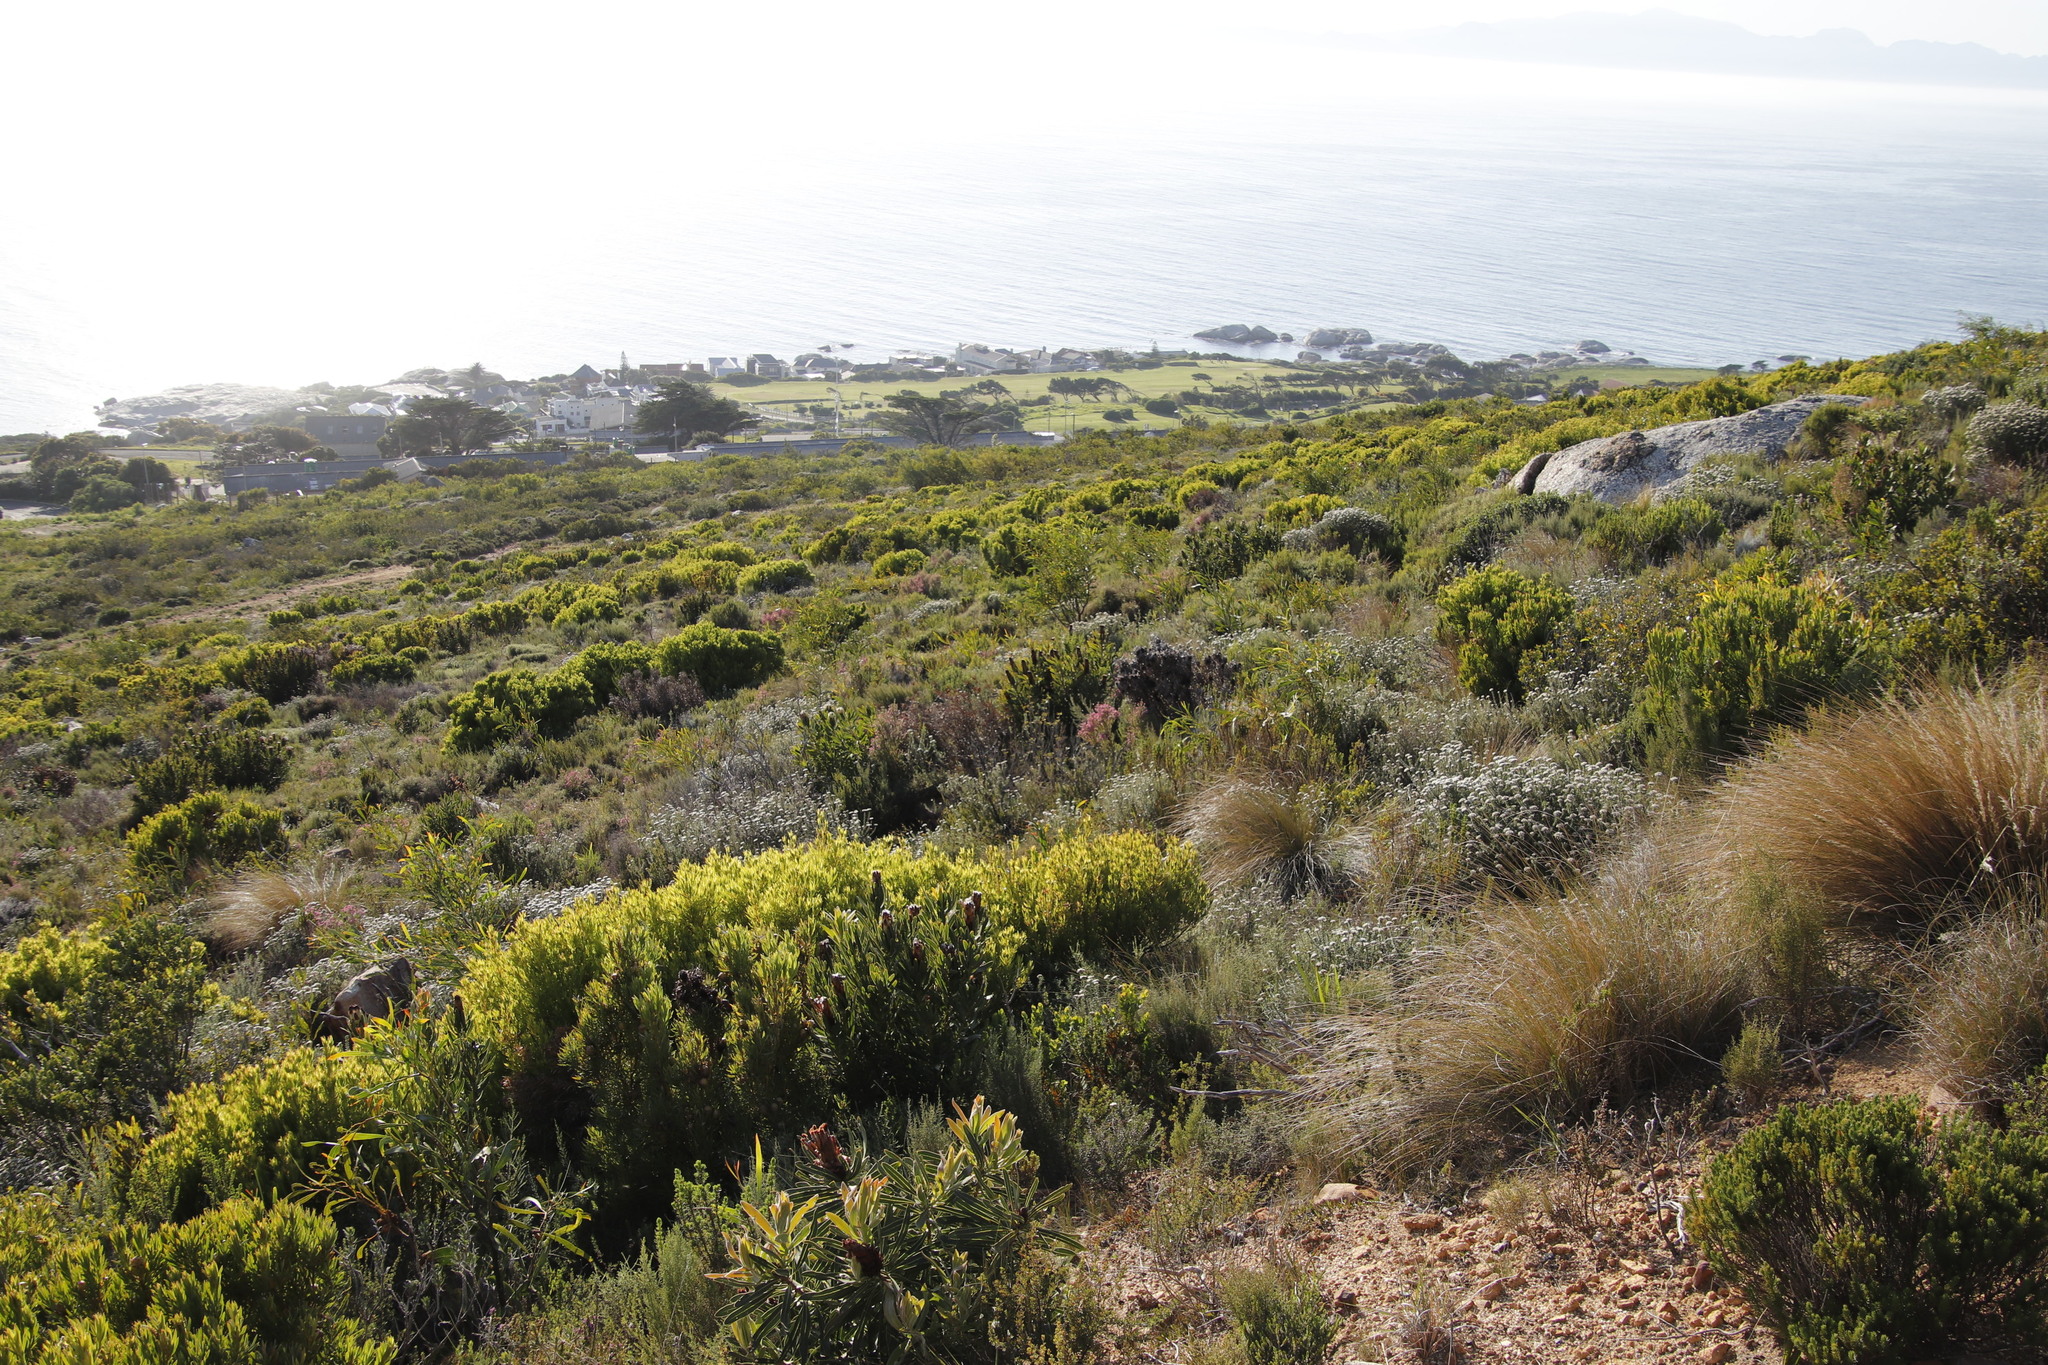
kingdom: Plantae
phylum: Tracheophyta
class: Magnoliopsida
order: Proteales
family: Proteaceae
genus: Protea
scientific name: Protea lepidocarpodendron
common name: Black-bearded protea
